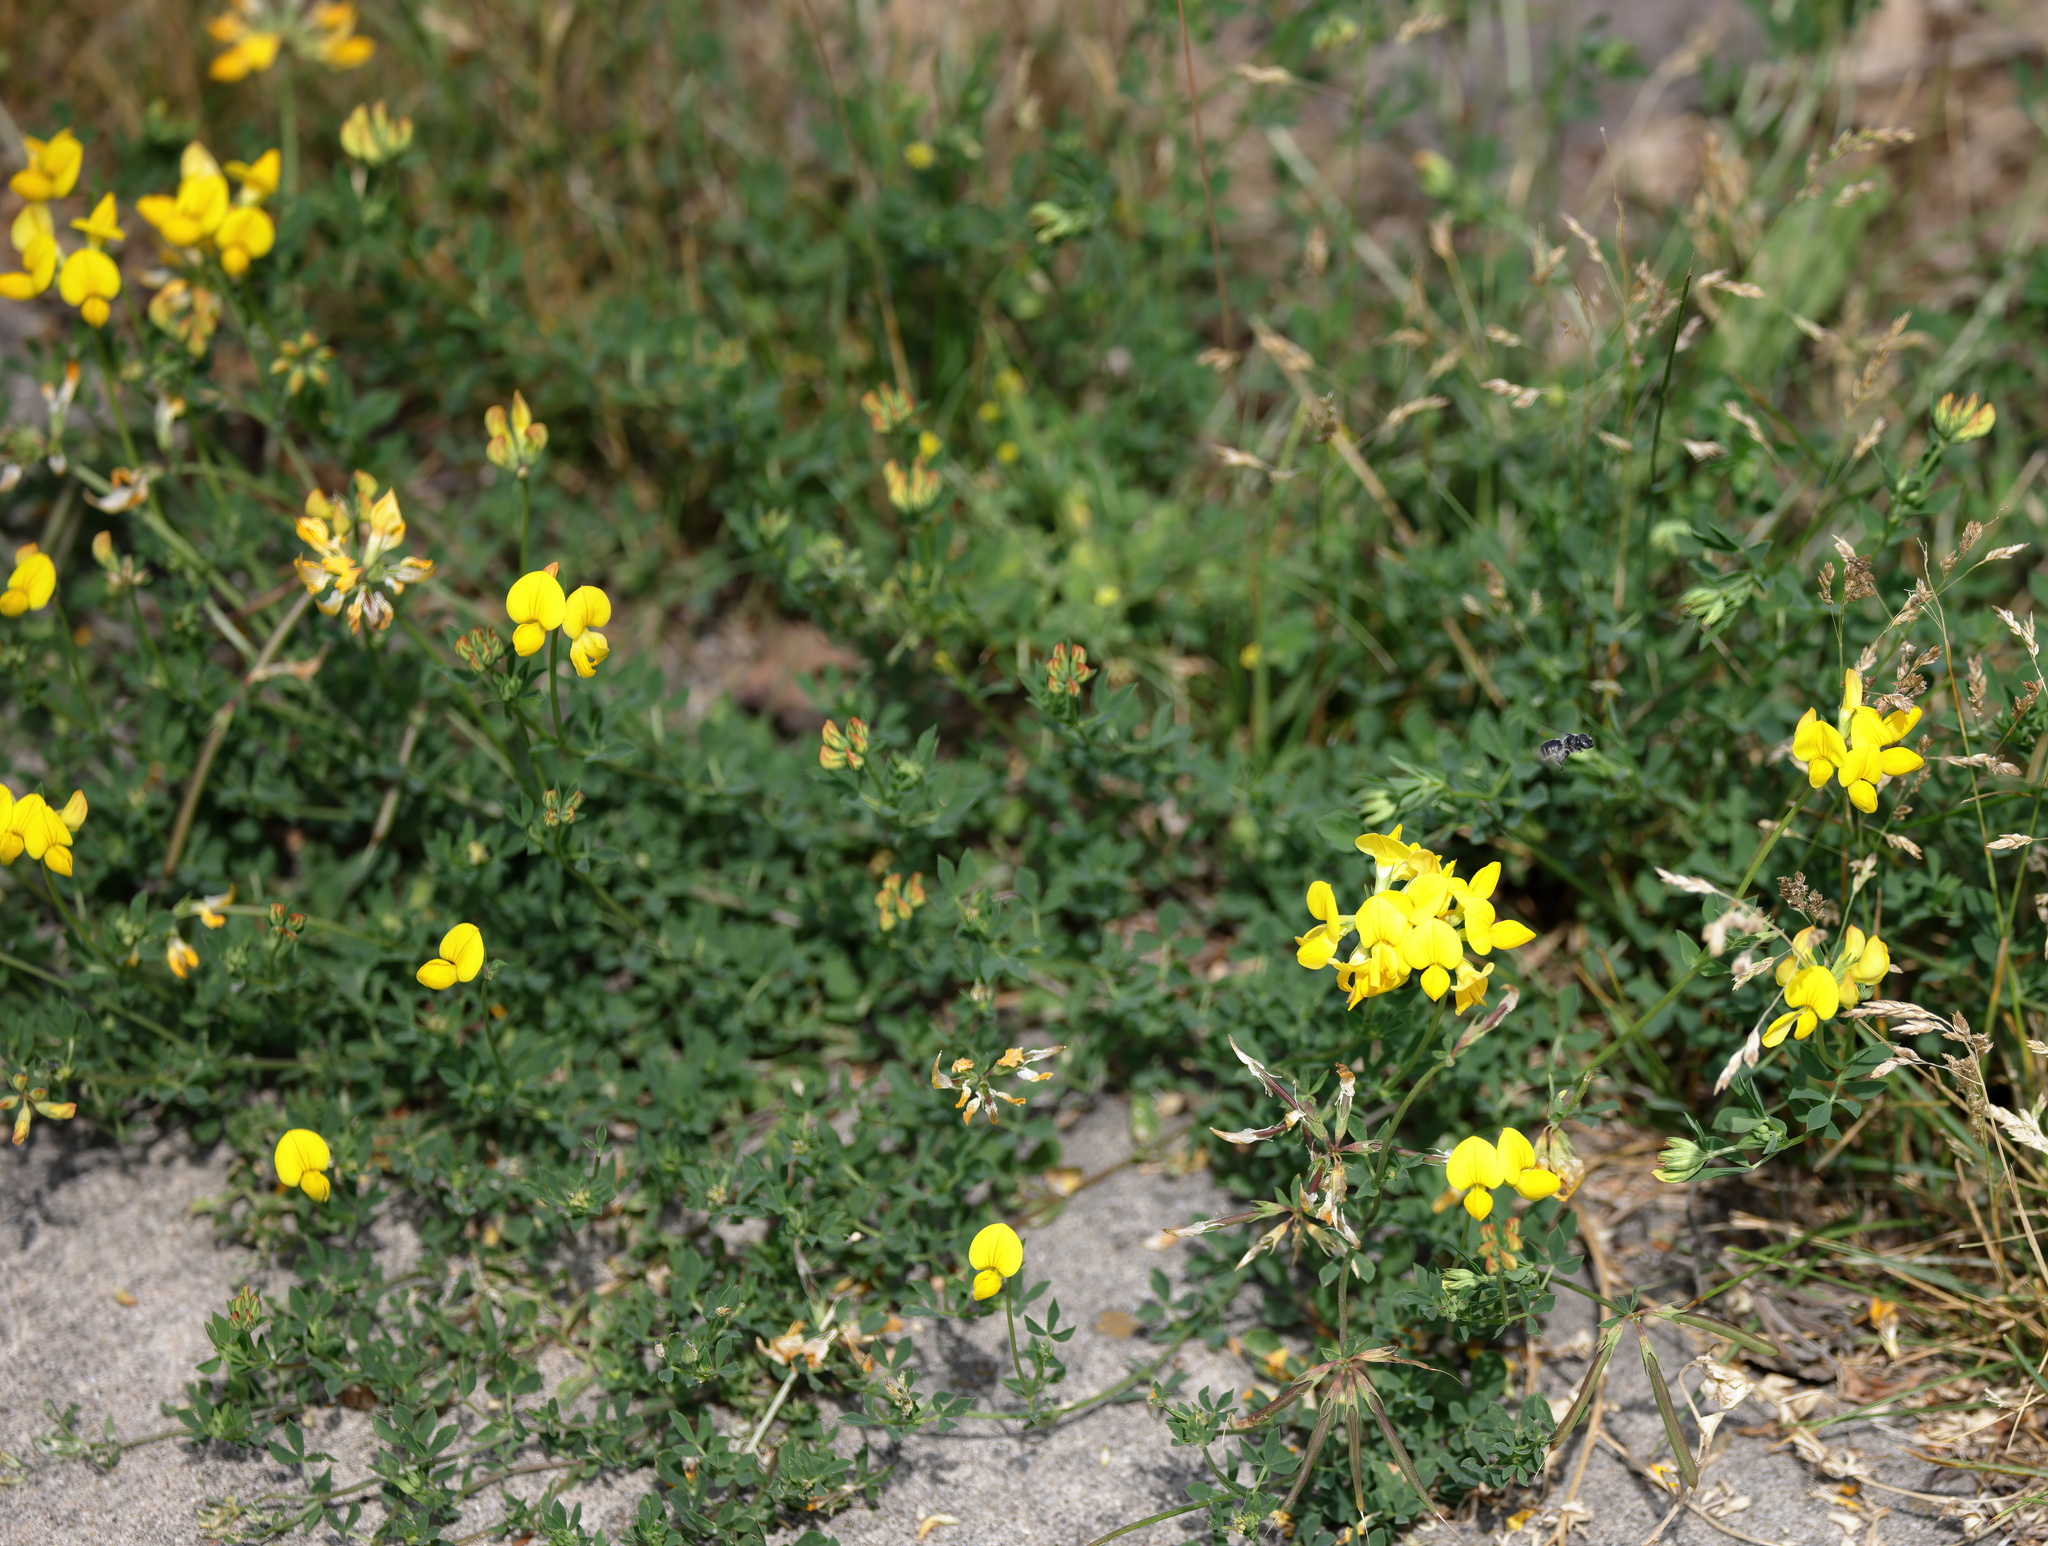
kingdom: Plantae
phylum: Tracheophyta
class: Magnoliopsida
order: Fabales
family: Fabaceae
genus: Lotus
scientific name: Lotus corniculatus
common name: Common bird's-foot-trefoil
